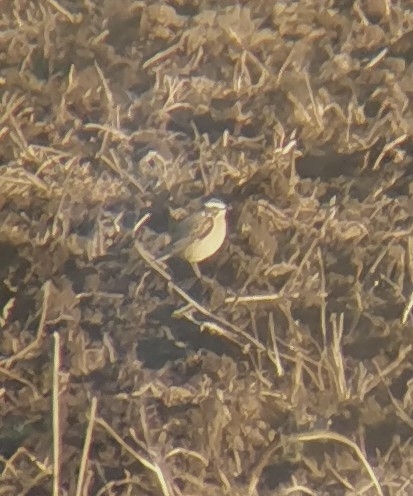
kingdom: Animalia
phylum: Chordata
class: Aves
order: Passeriformes
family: Muscicapidae
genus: Saxicola
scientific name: Saxicola rubetra
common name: Whinchat
